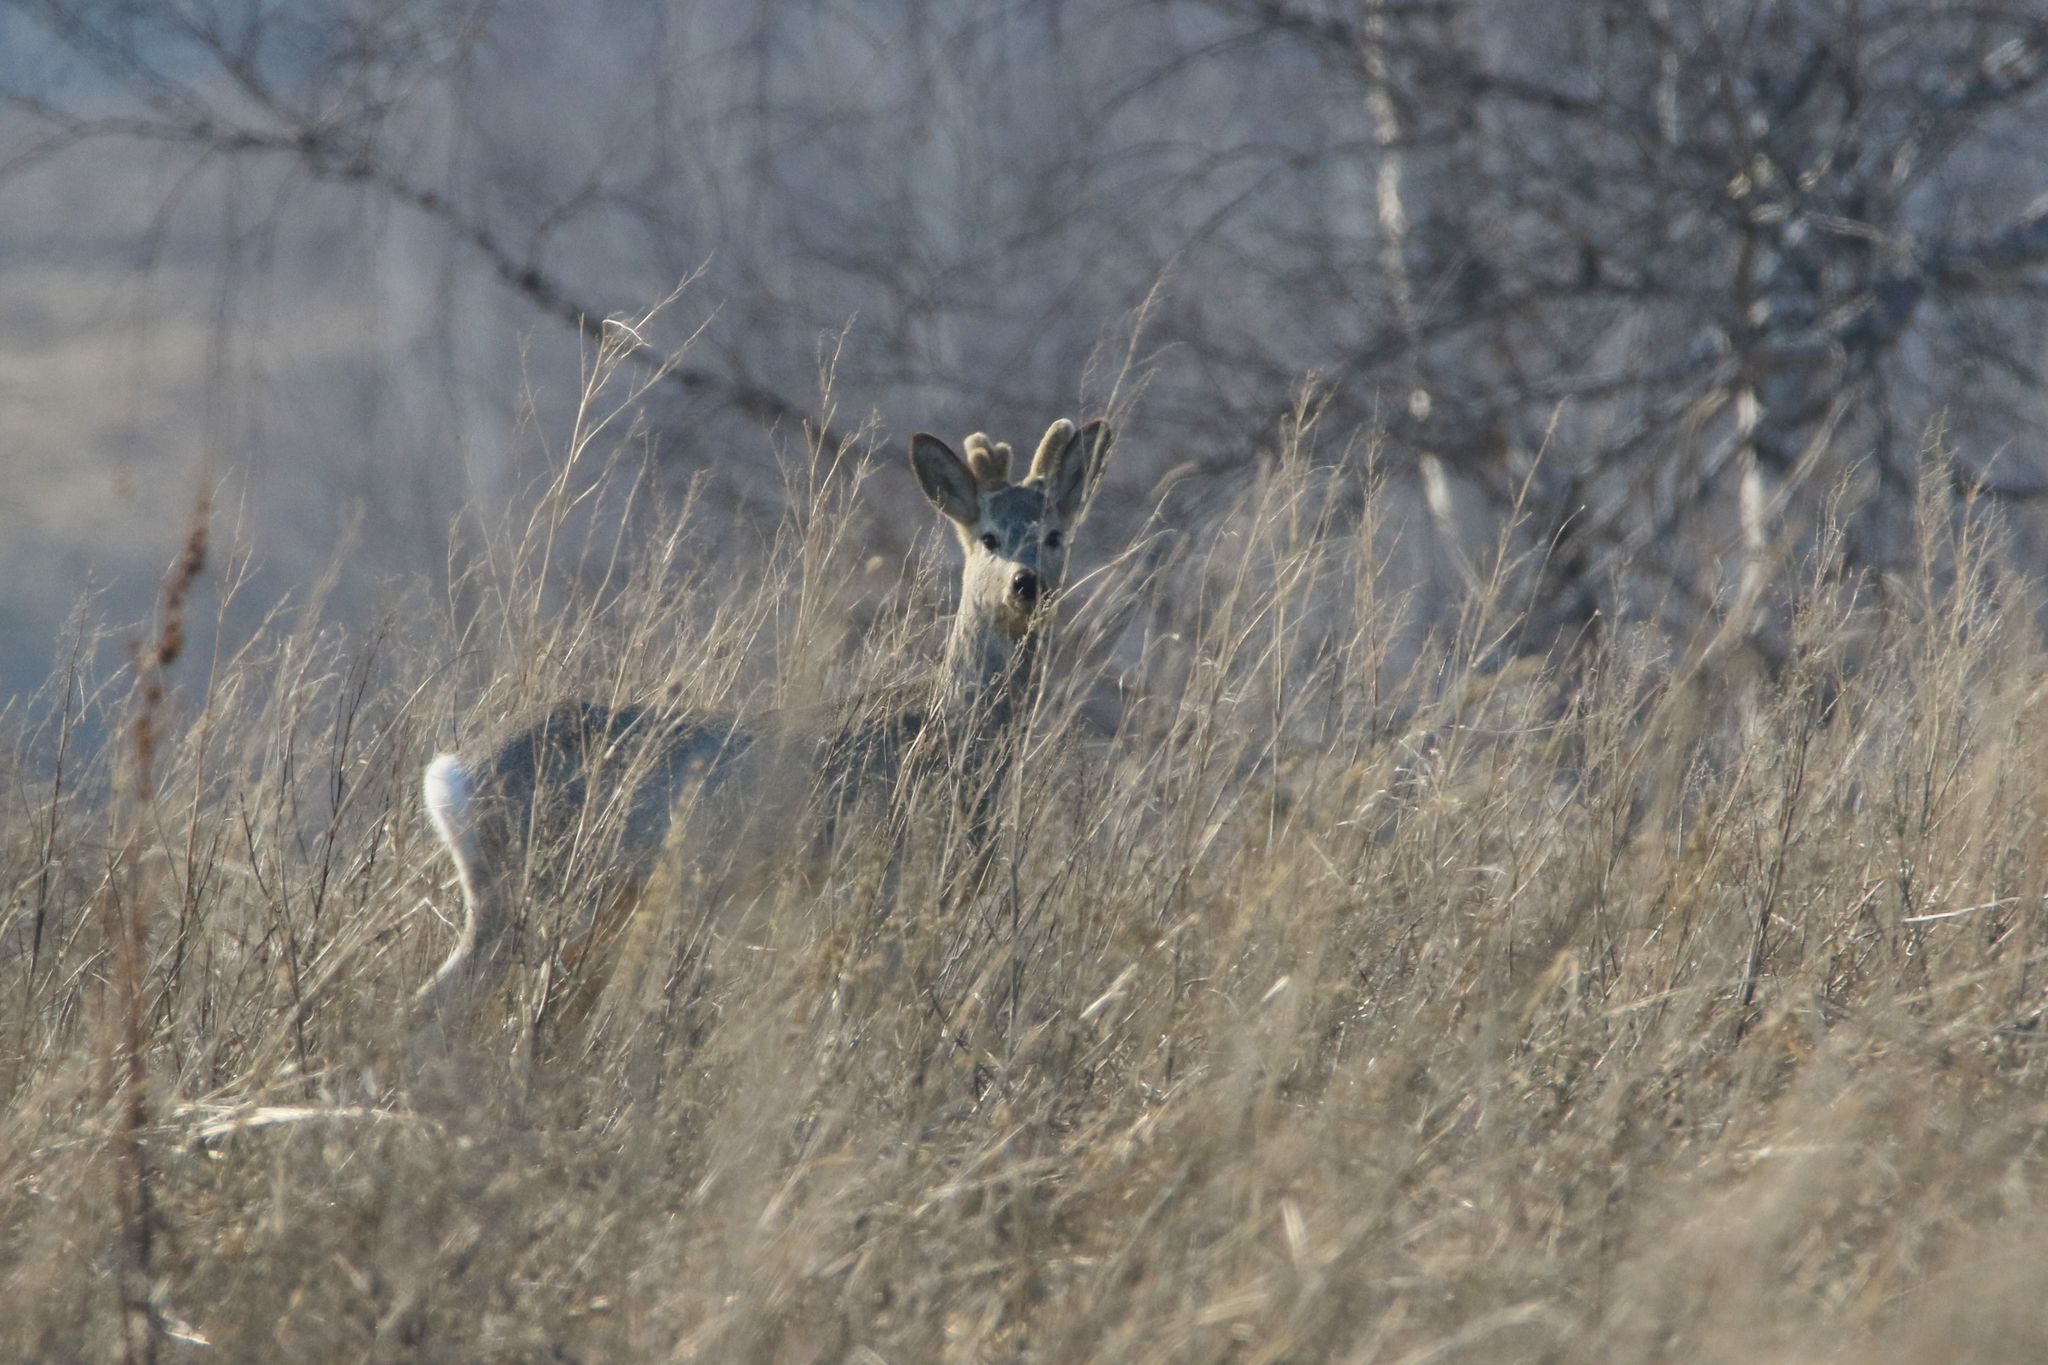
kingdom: Animalia
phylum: Chordata
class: Mammalia
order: Artiodactyla
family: Cervidae
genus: Capreolus
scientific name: Capreolus pygargus
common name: Siberian roe
